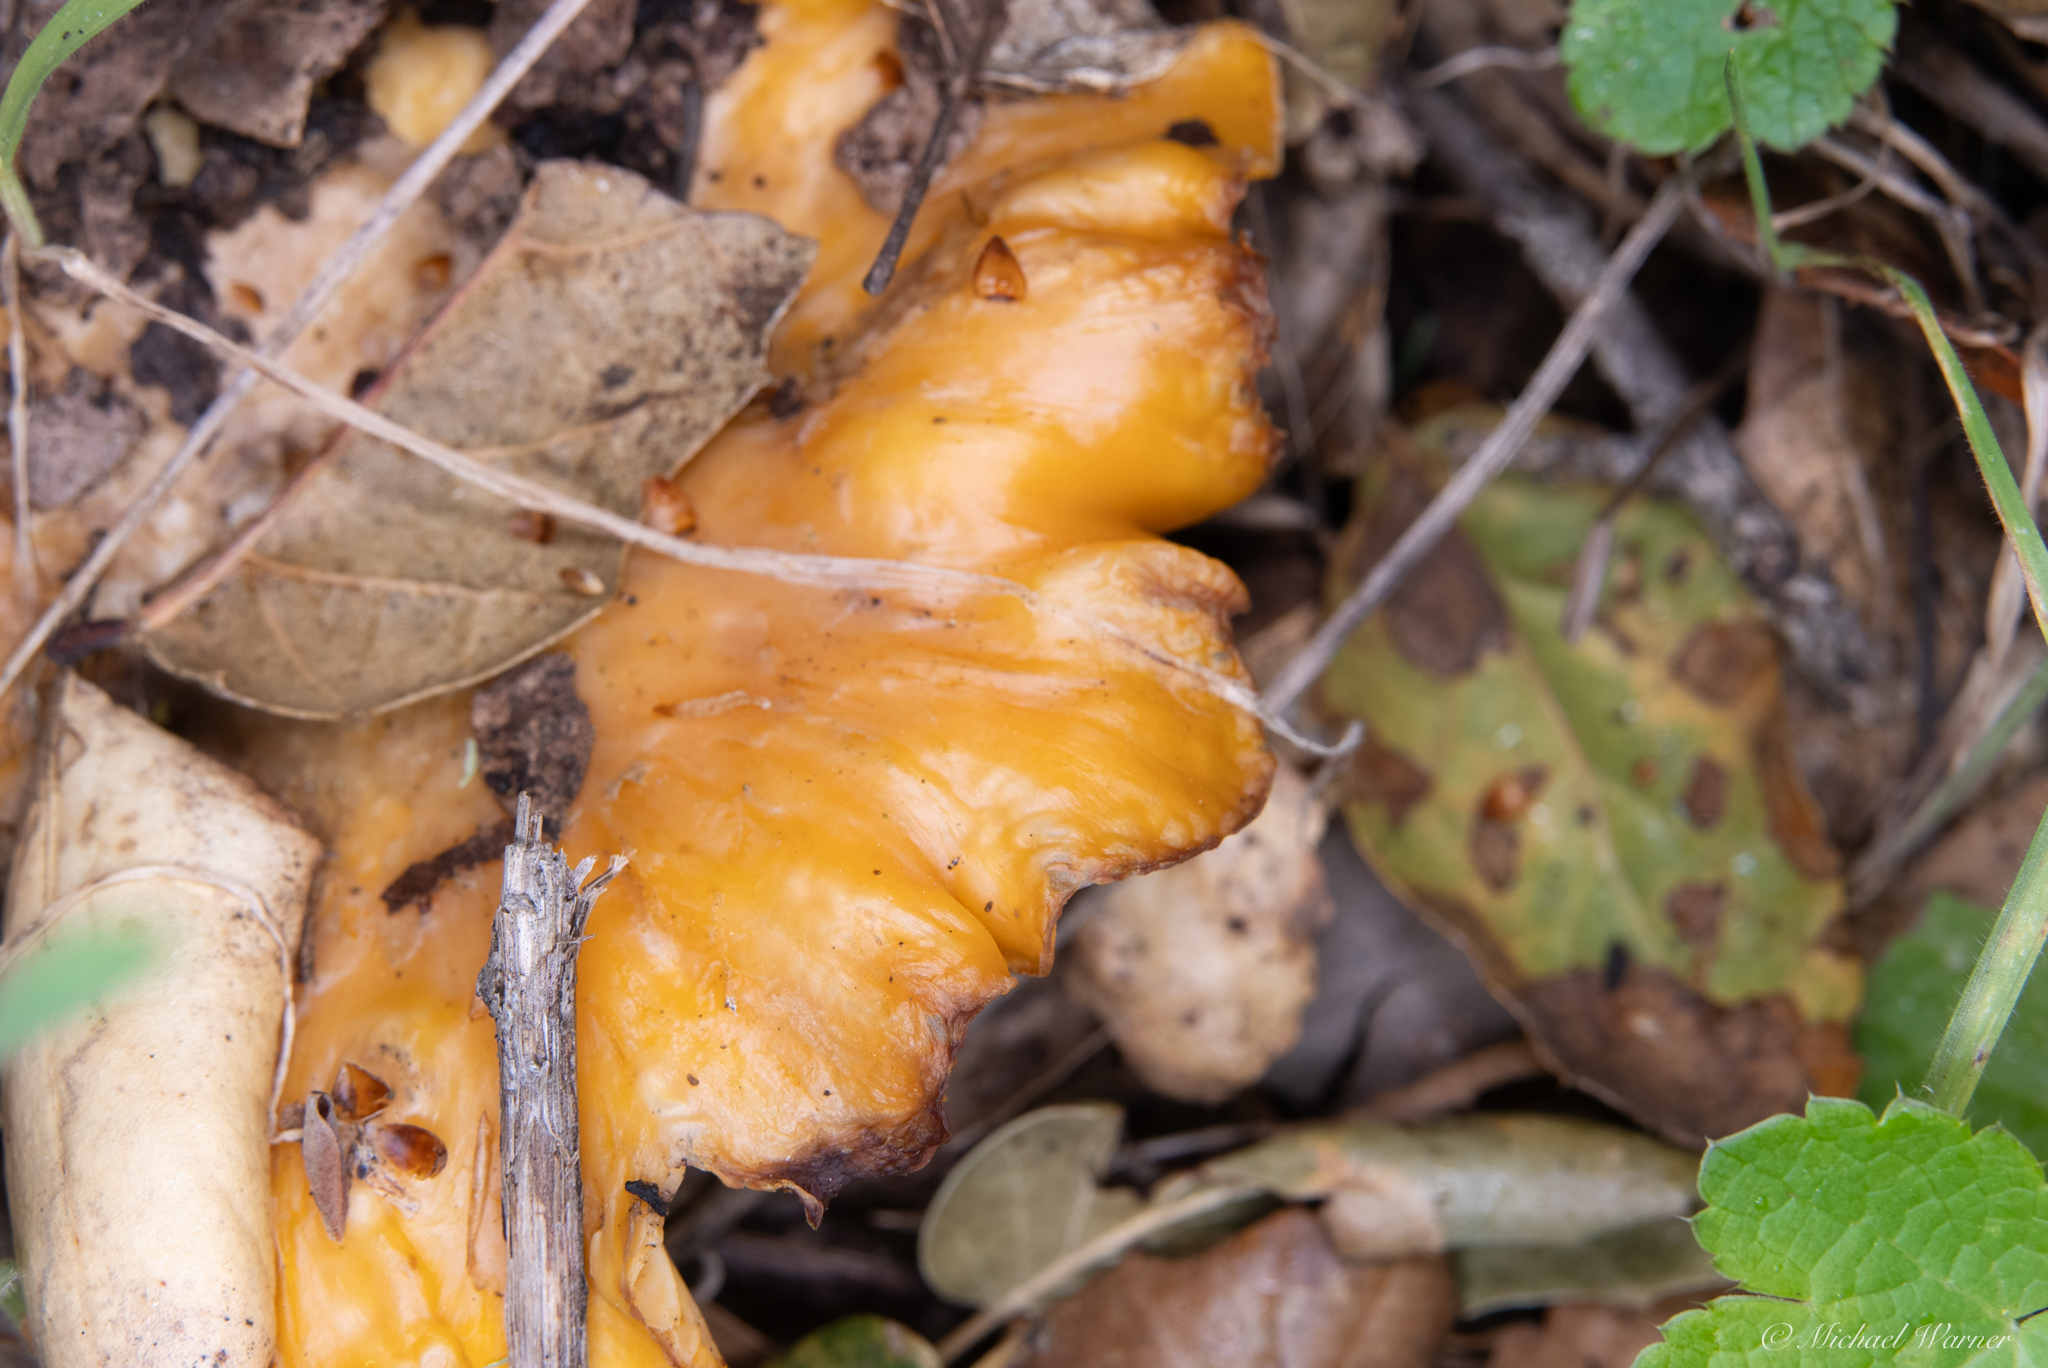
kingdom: Fungi
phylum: Basidiomycota
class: Agaricomycetes
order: Cantharellales
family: Hydnaceae
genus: Cantharellus
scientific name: Cantharellus californicus
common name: California golden chanterelle
